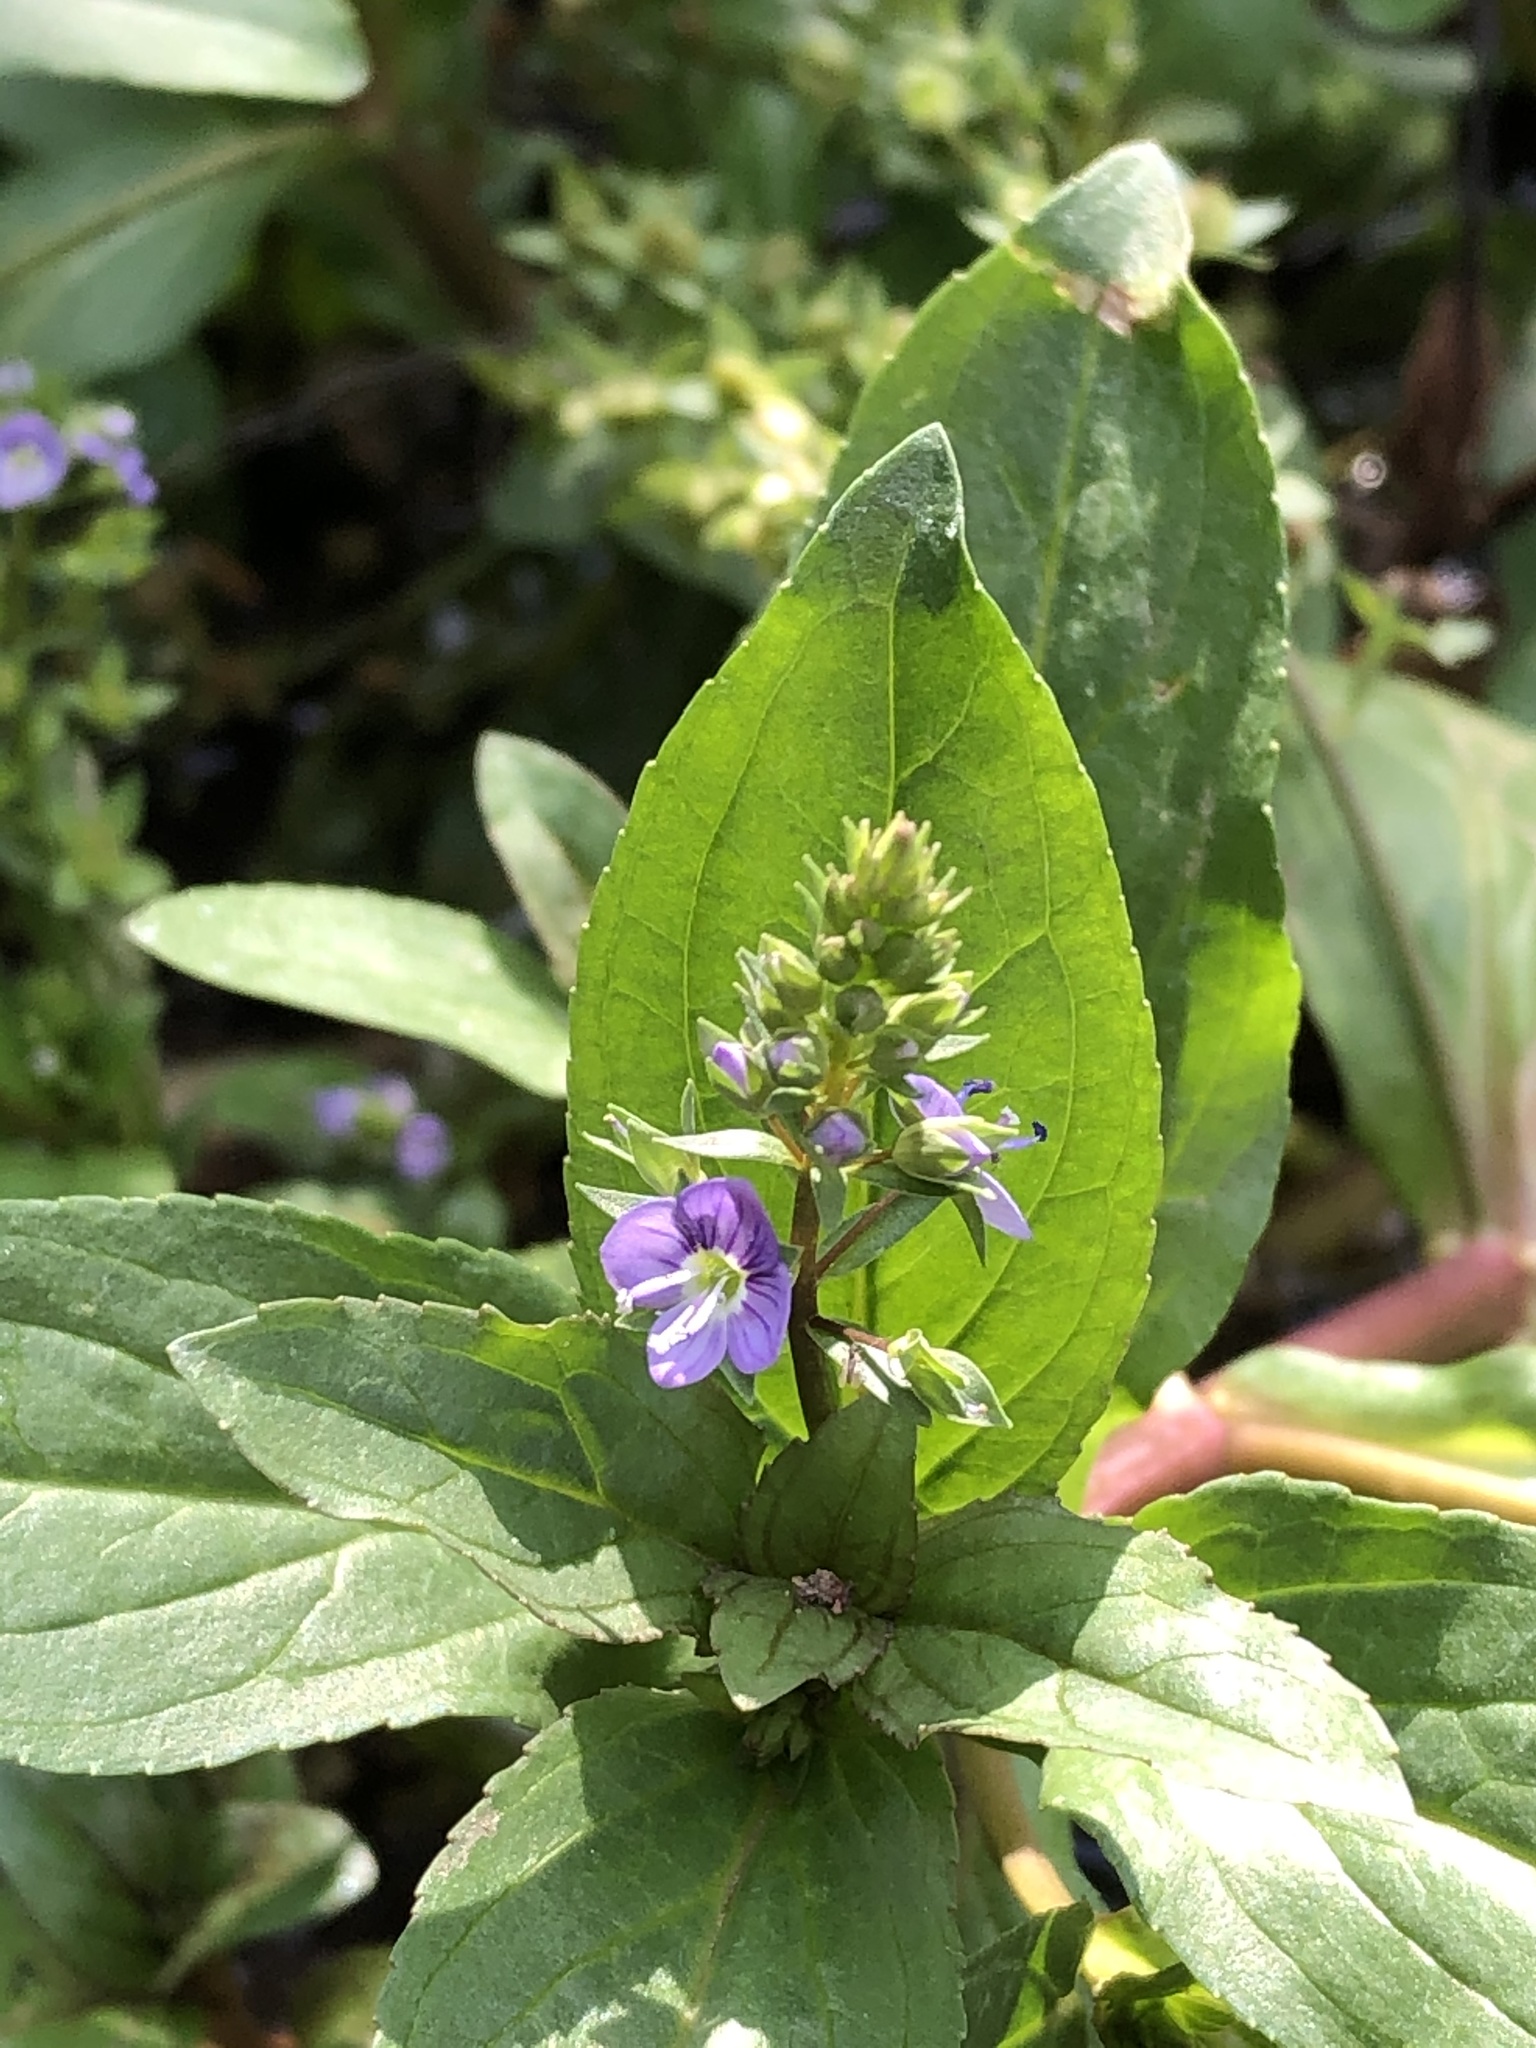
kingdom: Plantae
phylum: Tracheophyta
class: Magnoliopsida
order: Lamiales
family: Plantaginaceae
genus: Veronica
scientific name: Veronica anagallis-aquatica
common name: Water speedwell
